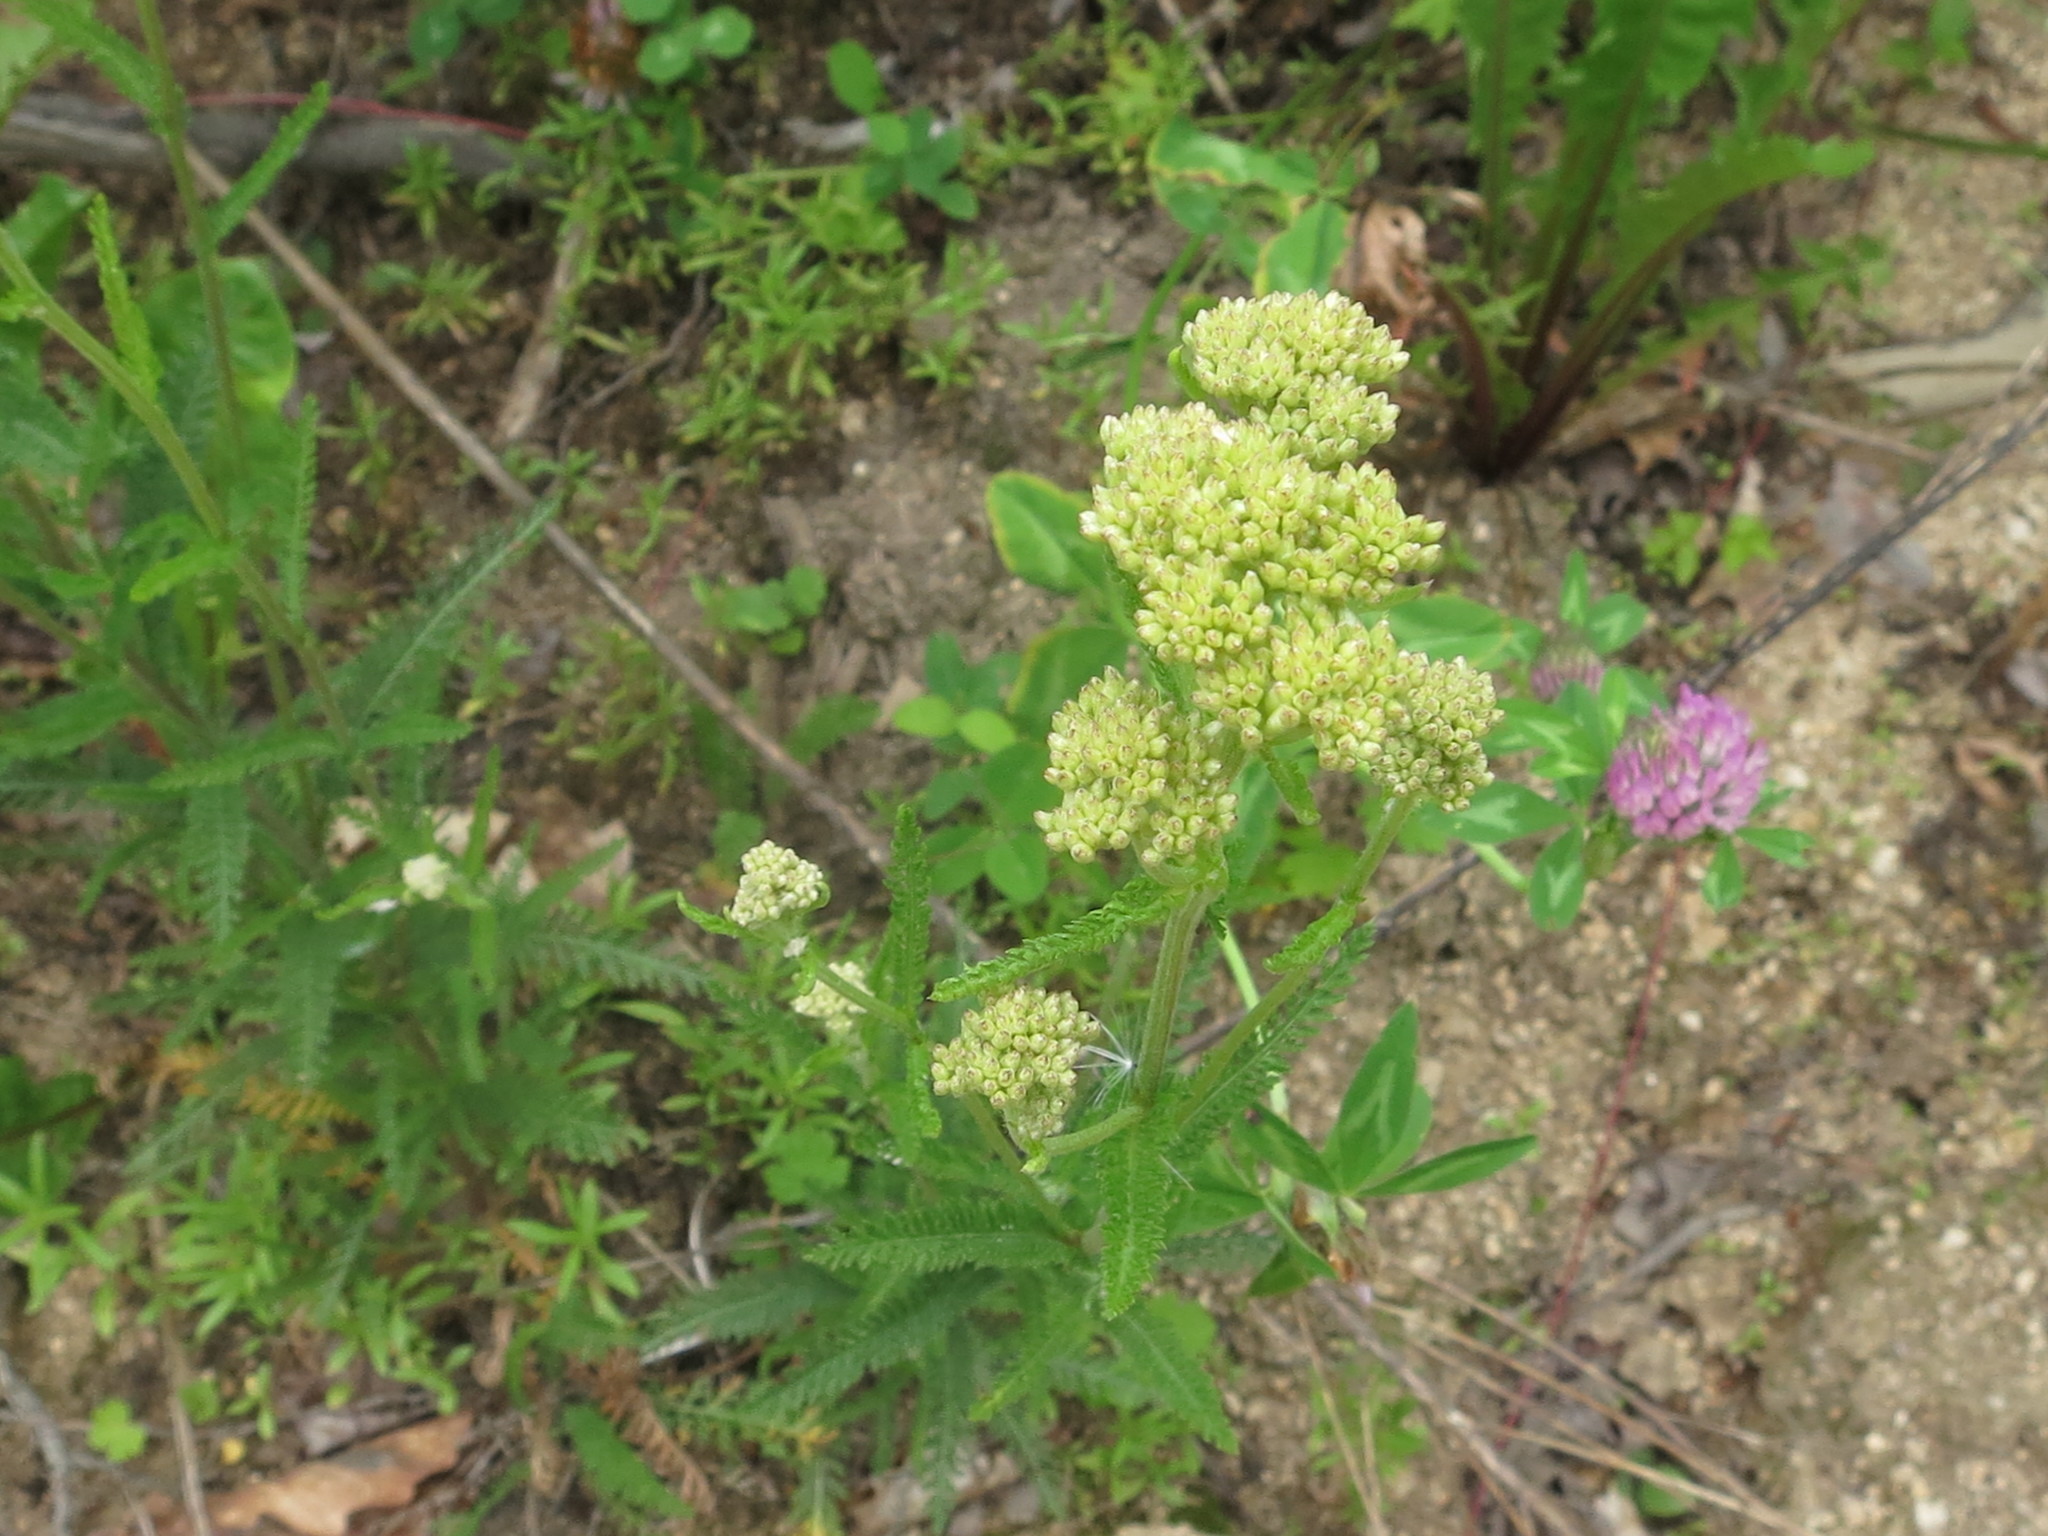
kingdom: Plantae
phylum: Tracheophyta
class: Magnoliopsida
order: Asterales
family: Asteraceae
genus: Achillea
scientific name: Achillea millefolium
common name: Yarrow
